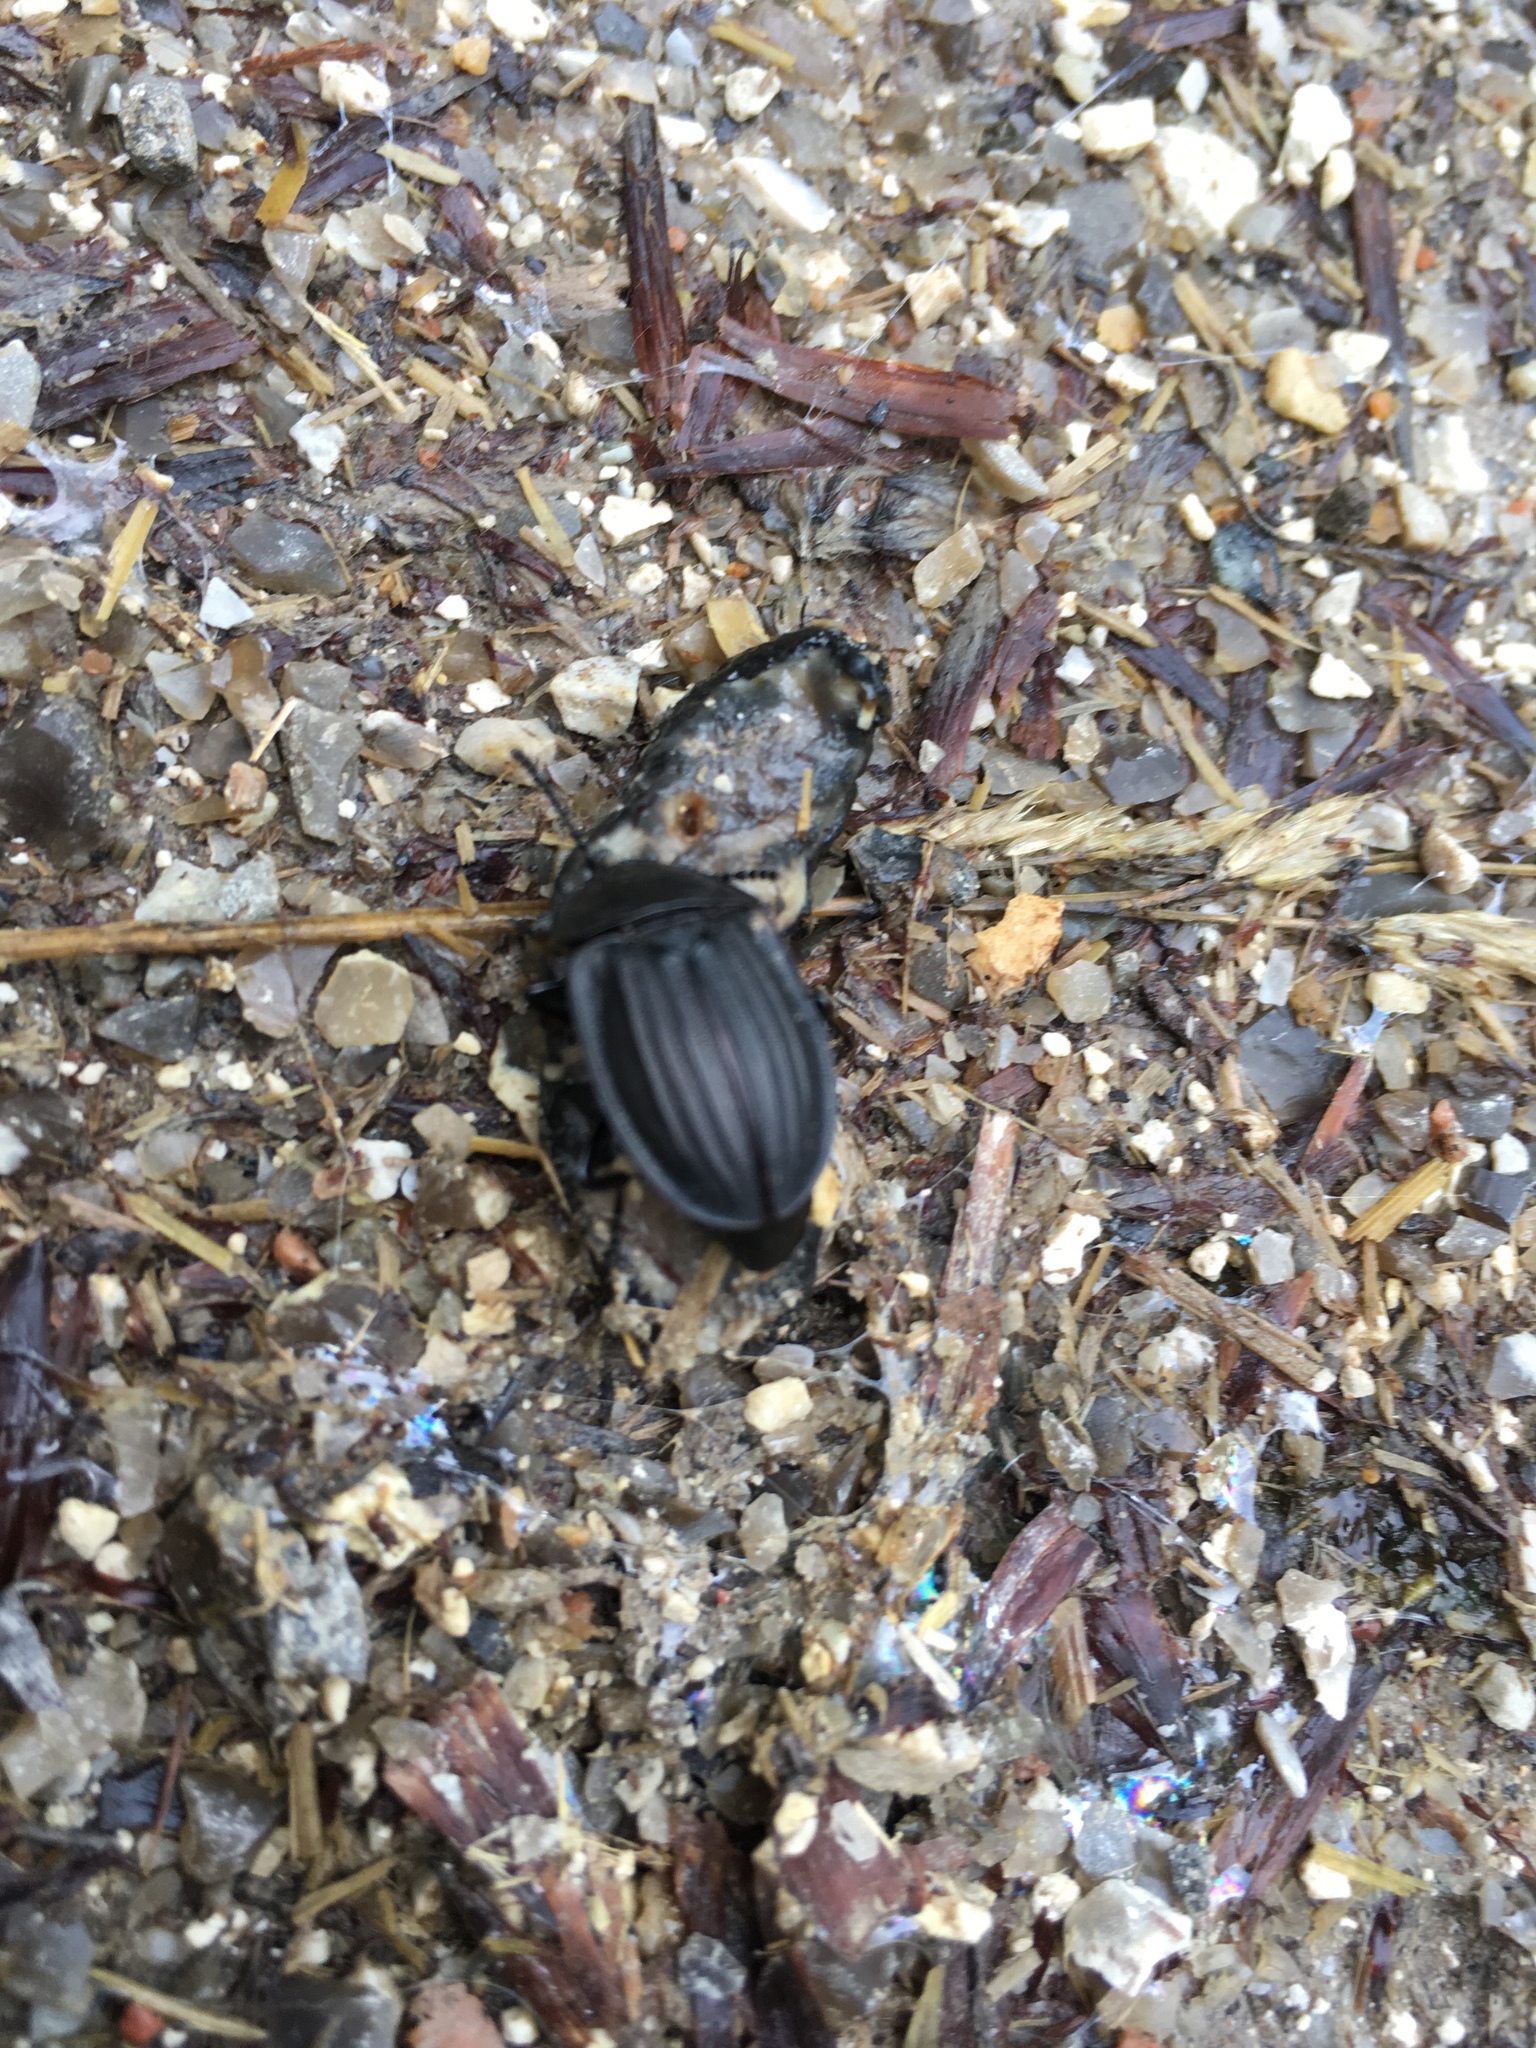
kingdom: Animalia
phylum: Arthropoda
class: Insecta
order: Coleoptera
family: Staphylinidae
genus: Silpha
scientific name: Silpha carinata
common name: Silphid beetle
